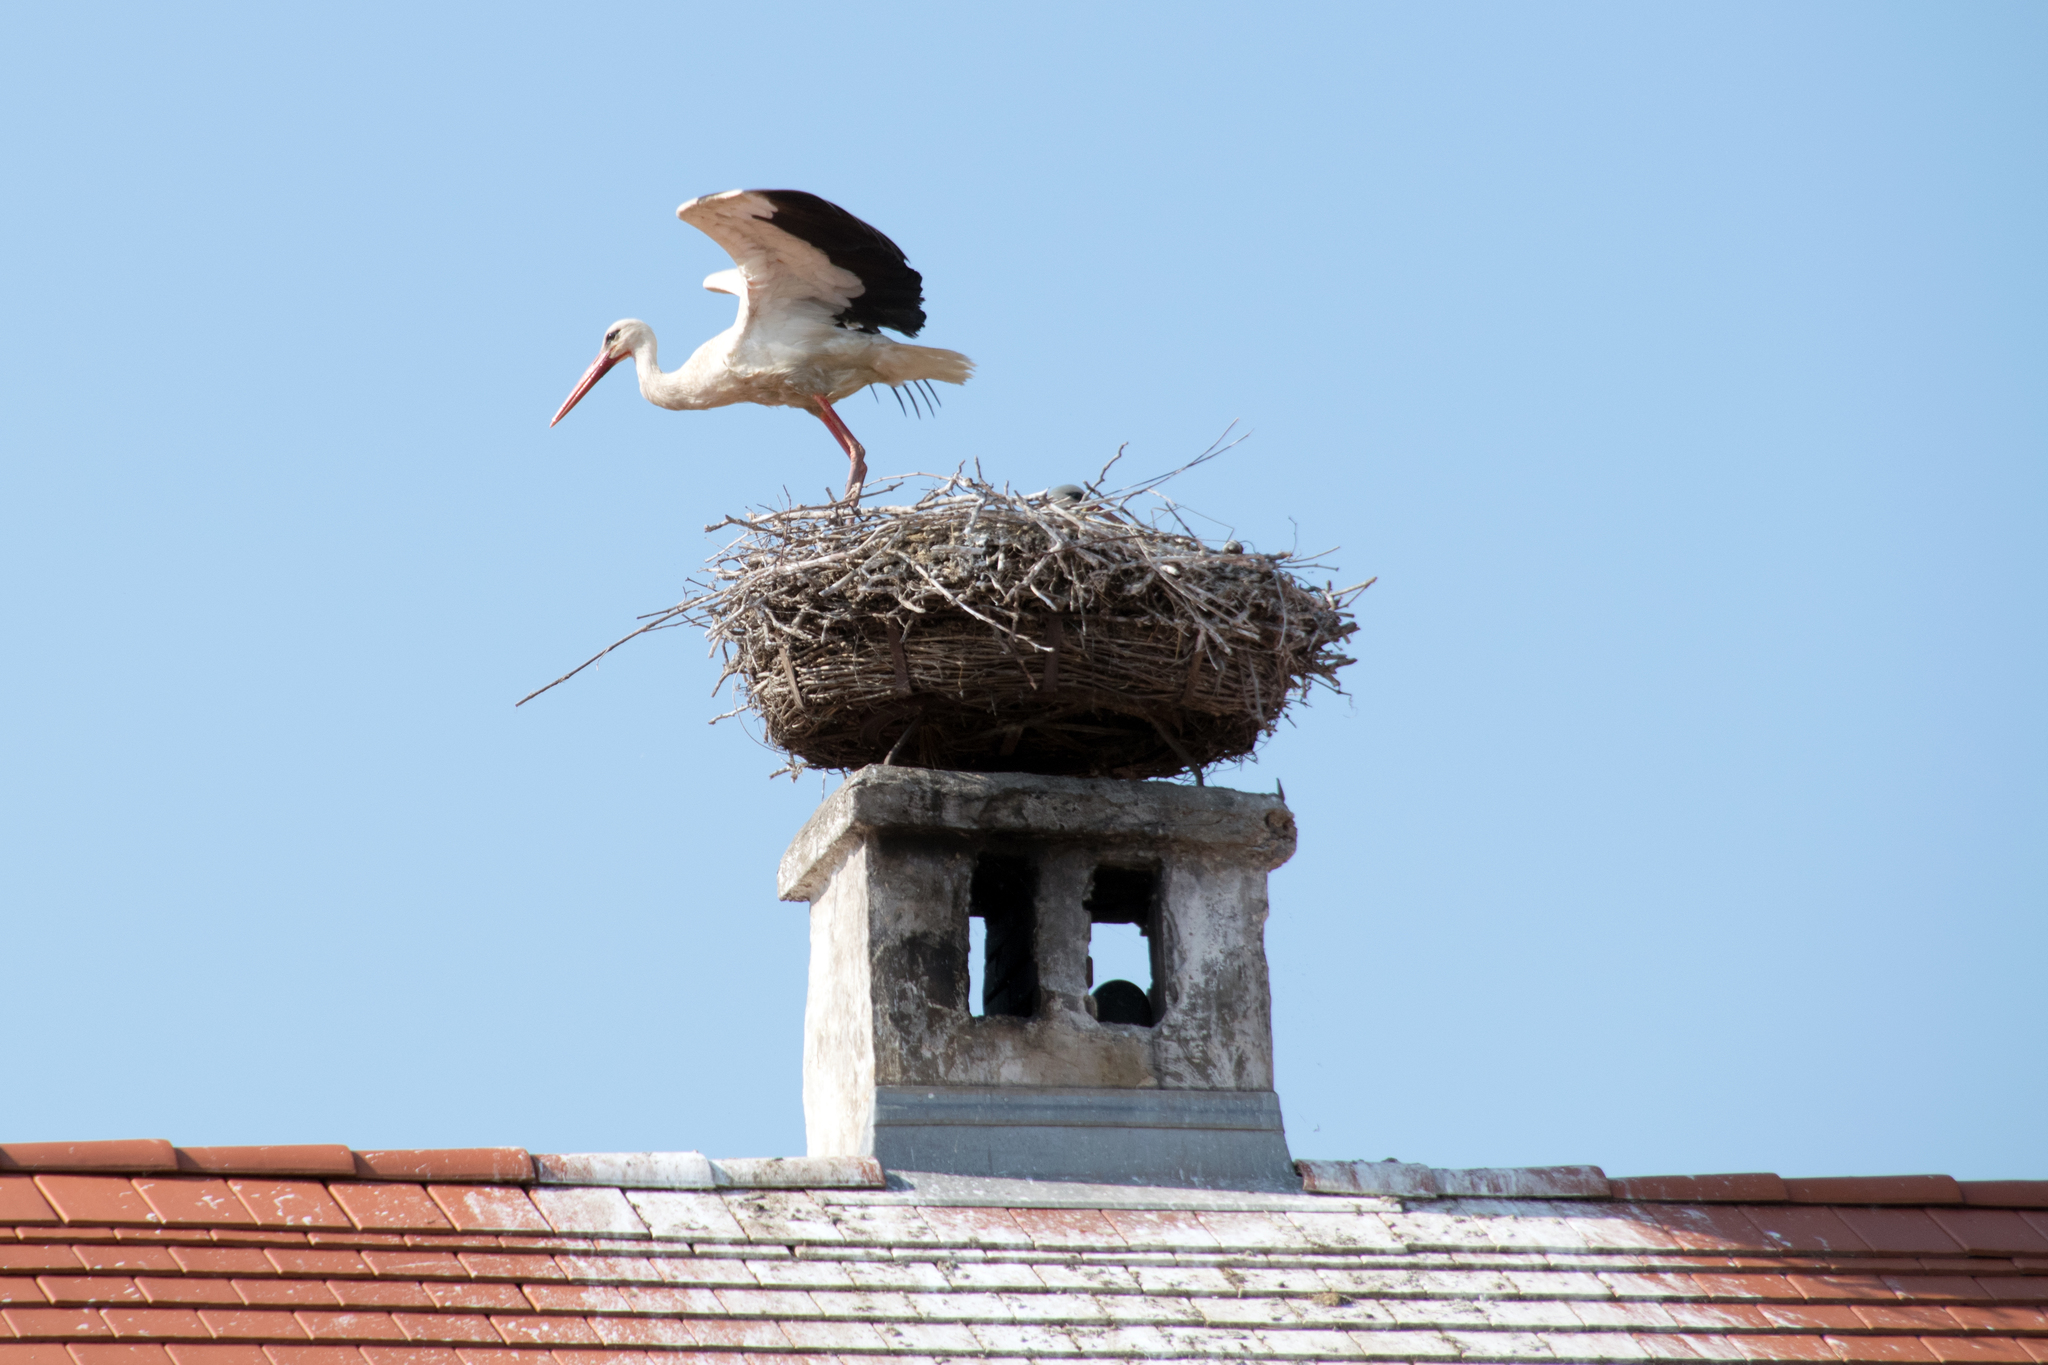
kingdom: Animalia
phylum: Chordata
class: Aves
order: Ciconiiformes
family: Ciconiidae
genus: Ciconia
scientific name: Ciconia ciconia
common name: White stork
